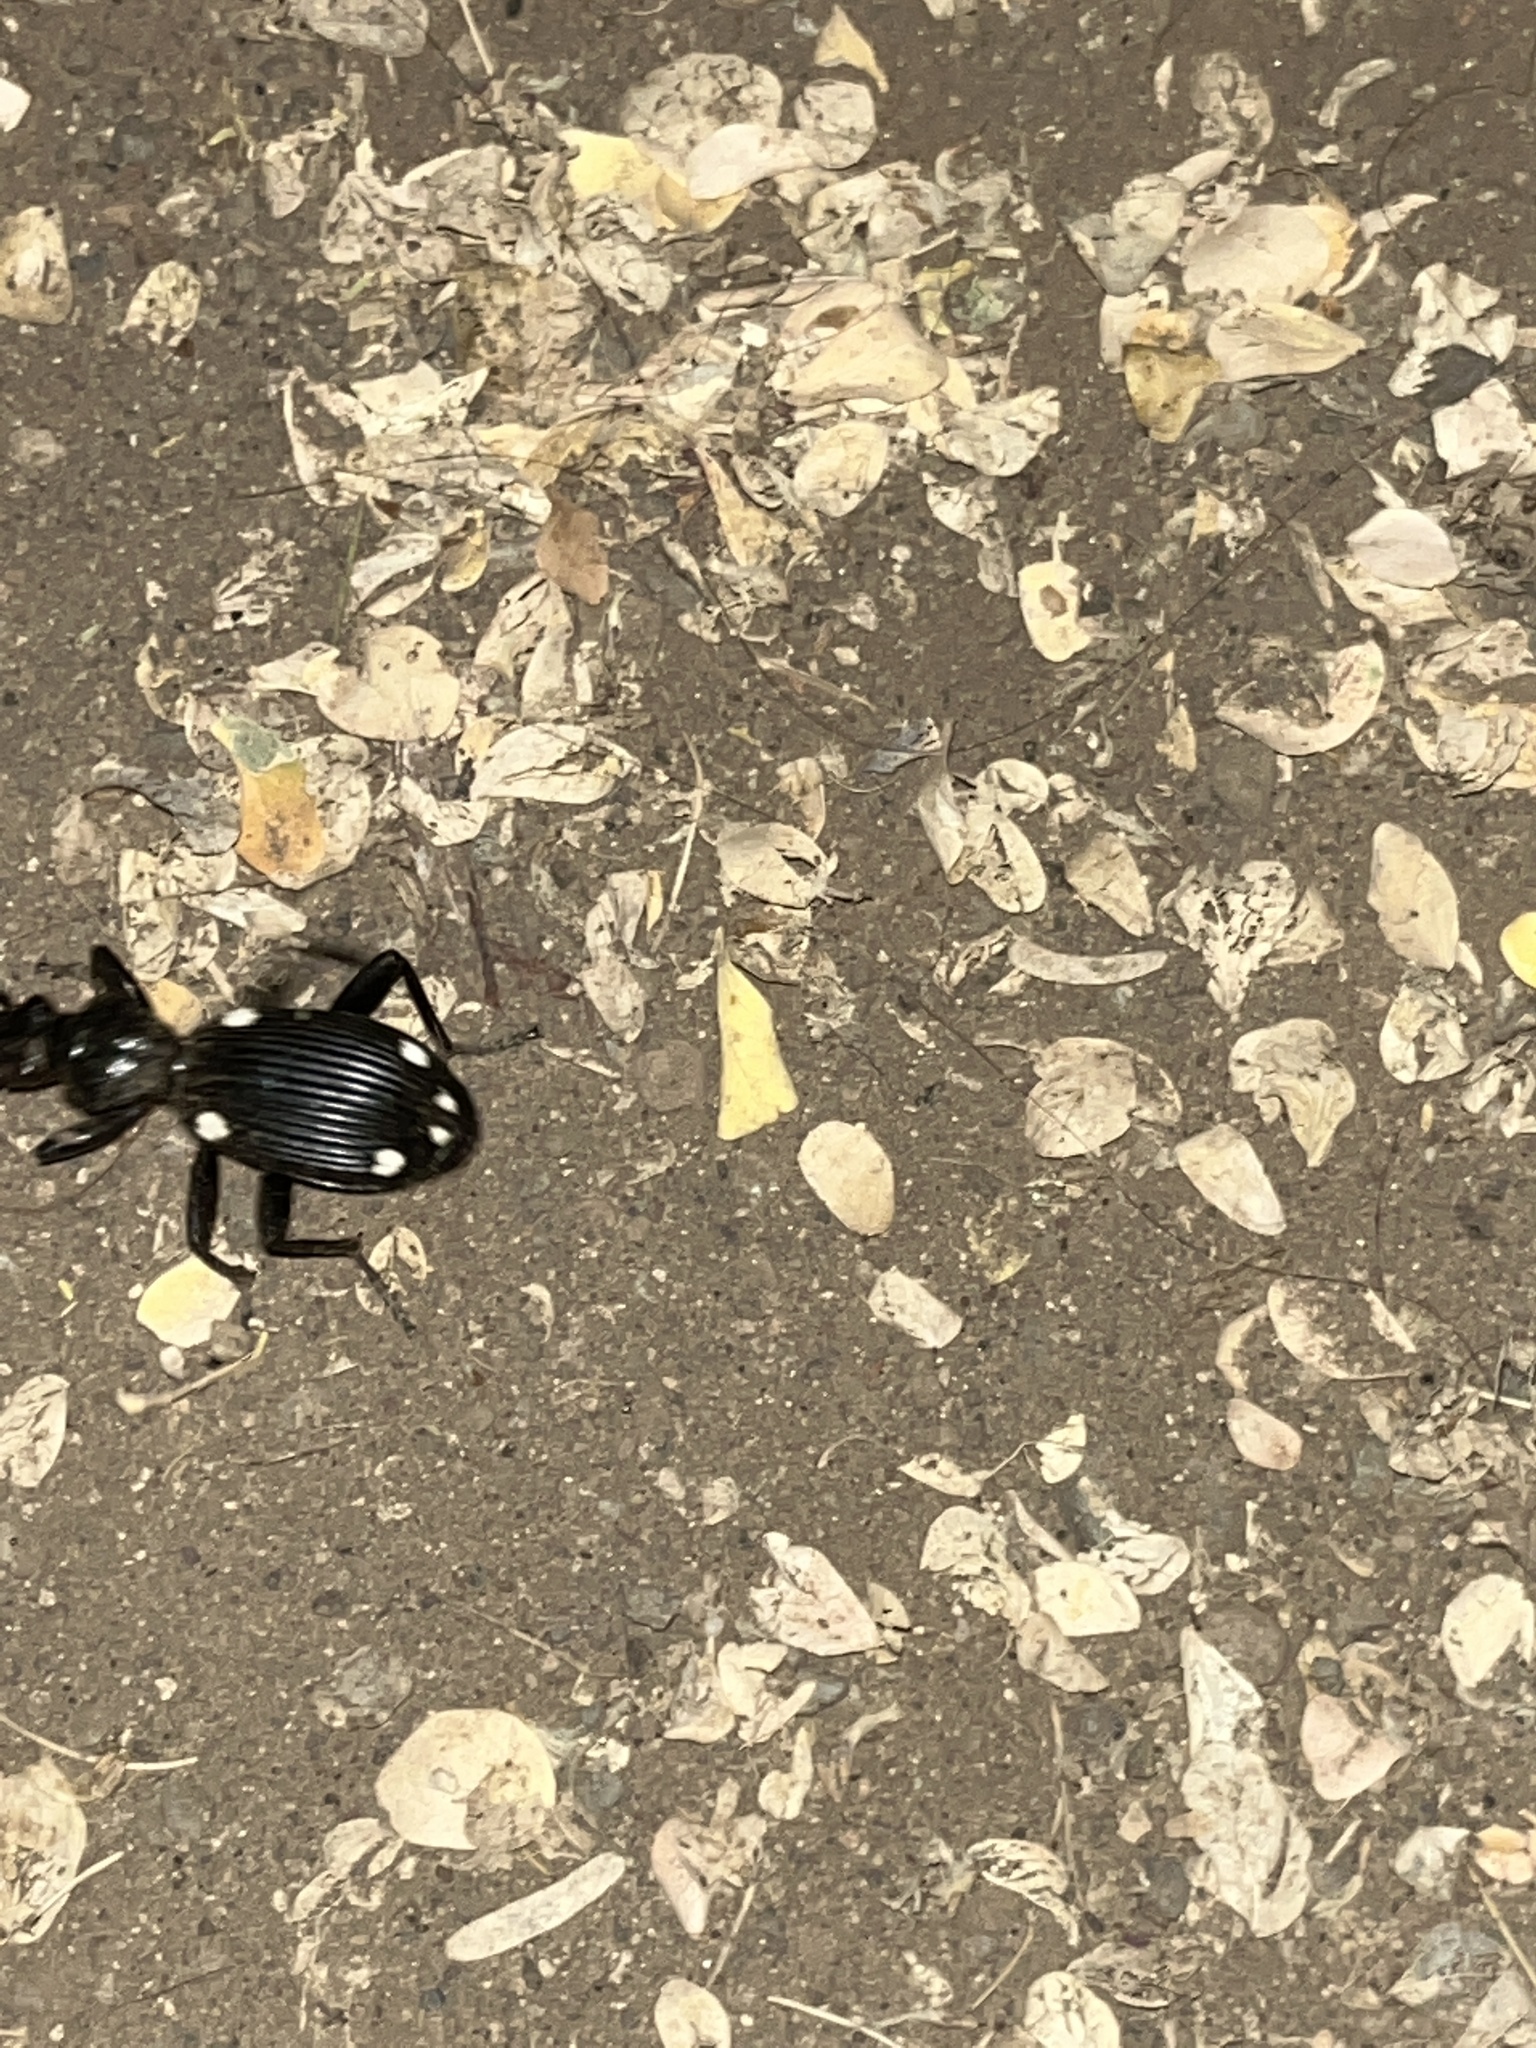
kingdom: Animalia
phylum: Arthropoda
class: Insecta
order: Coleoptera
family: Carabidae
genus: Anthia
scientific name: Anthia hexasticta
